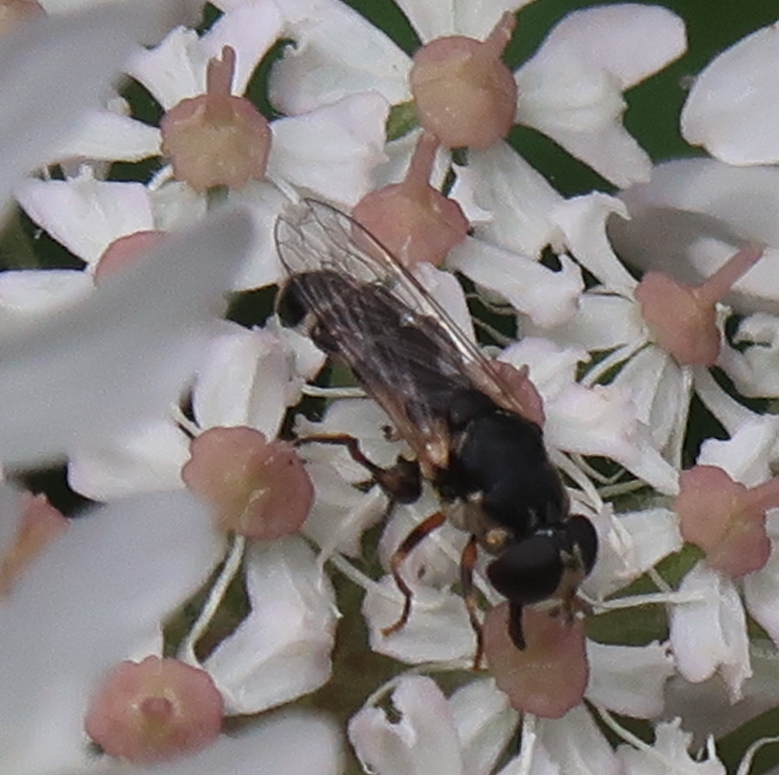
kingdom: Animalia
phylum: Arthropoda
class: Insecta
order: Diptera
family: Syrphidae
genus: Syritta
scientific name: Syritta pipiens
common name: Hover fly
